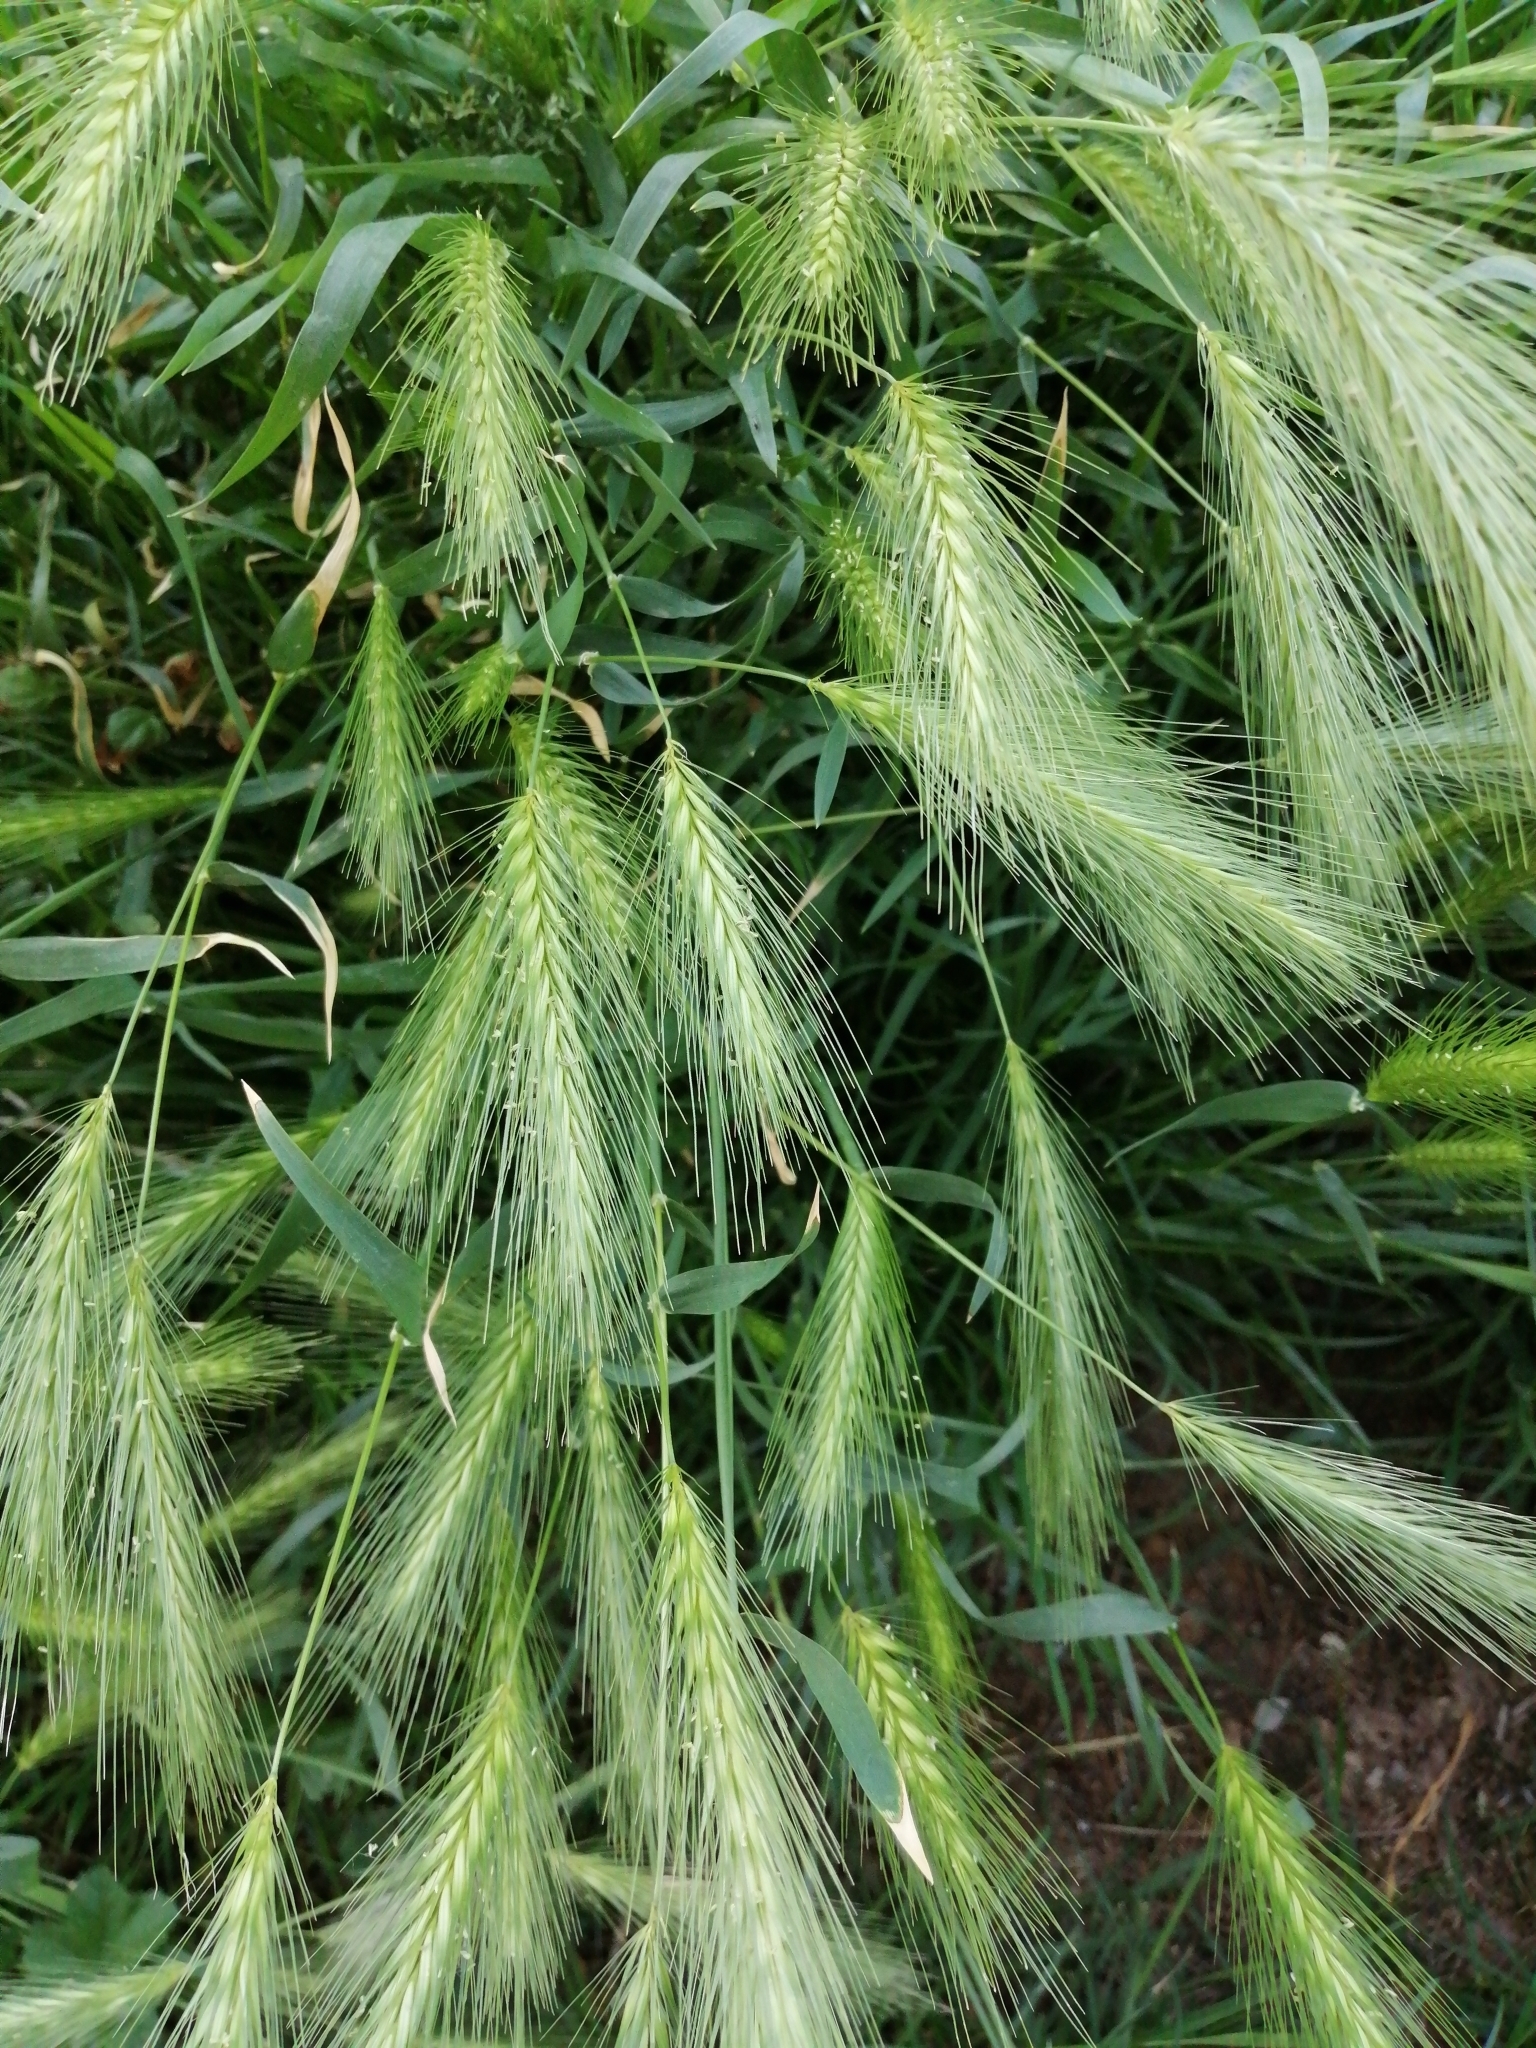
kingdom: Plantae
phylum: Tracheophyta
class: Liliopsida
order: Poales
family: Poaceae
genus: Hordeum
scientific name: Hordeum murinum
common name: Wall barley
